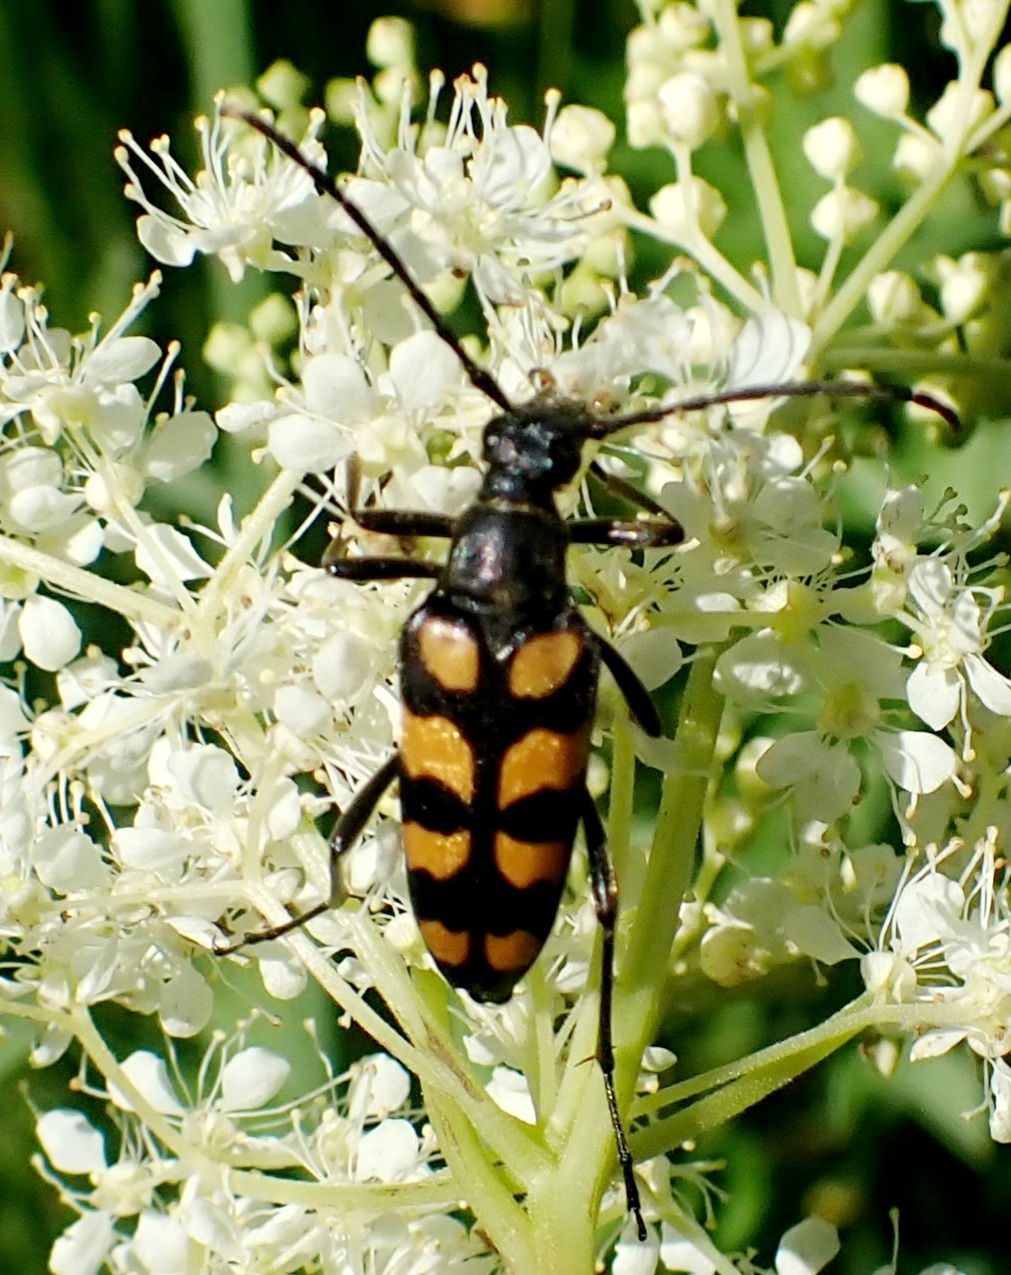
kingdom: Animalia
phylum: Arthropoda
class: Insecta
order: Coleoptera
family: Cerambycidae
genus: Leptura
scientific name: Leptura quadrifasciata
